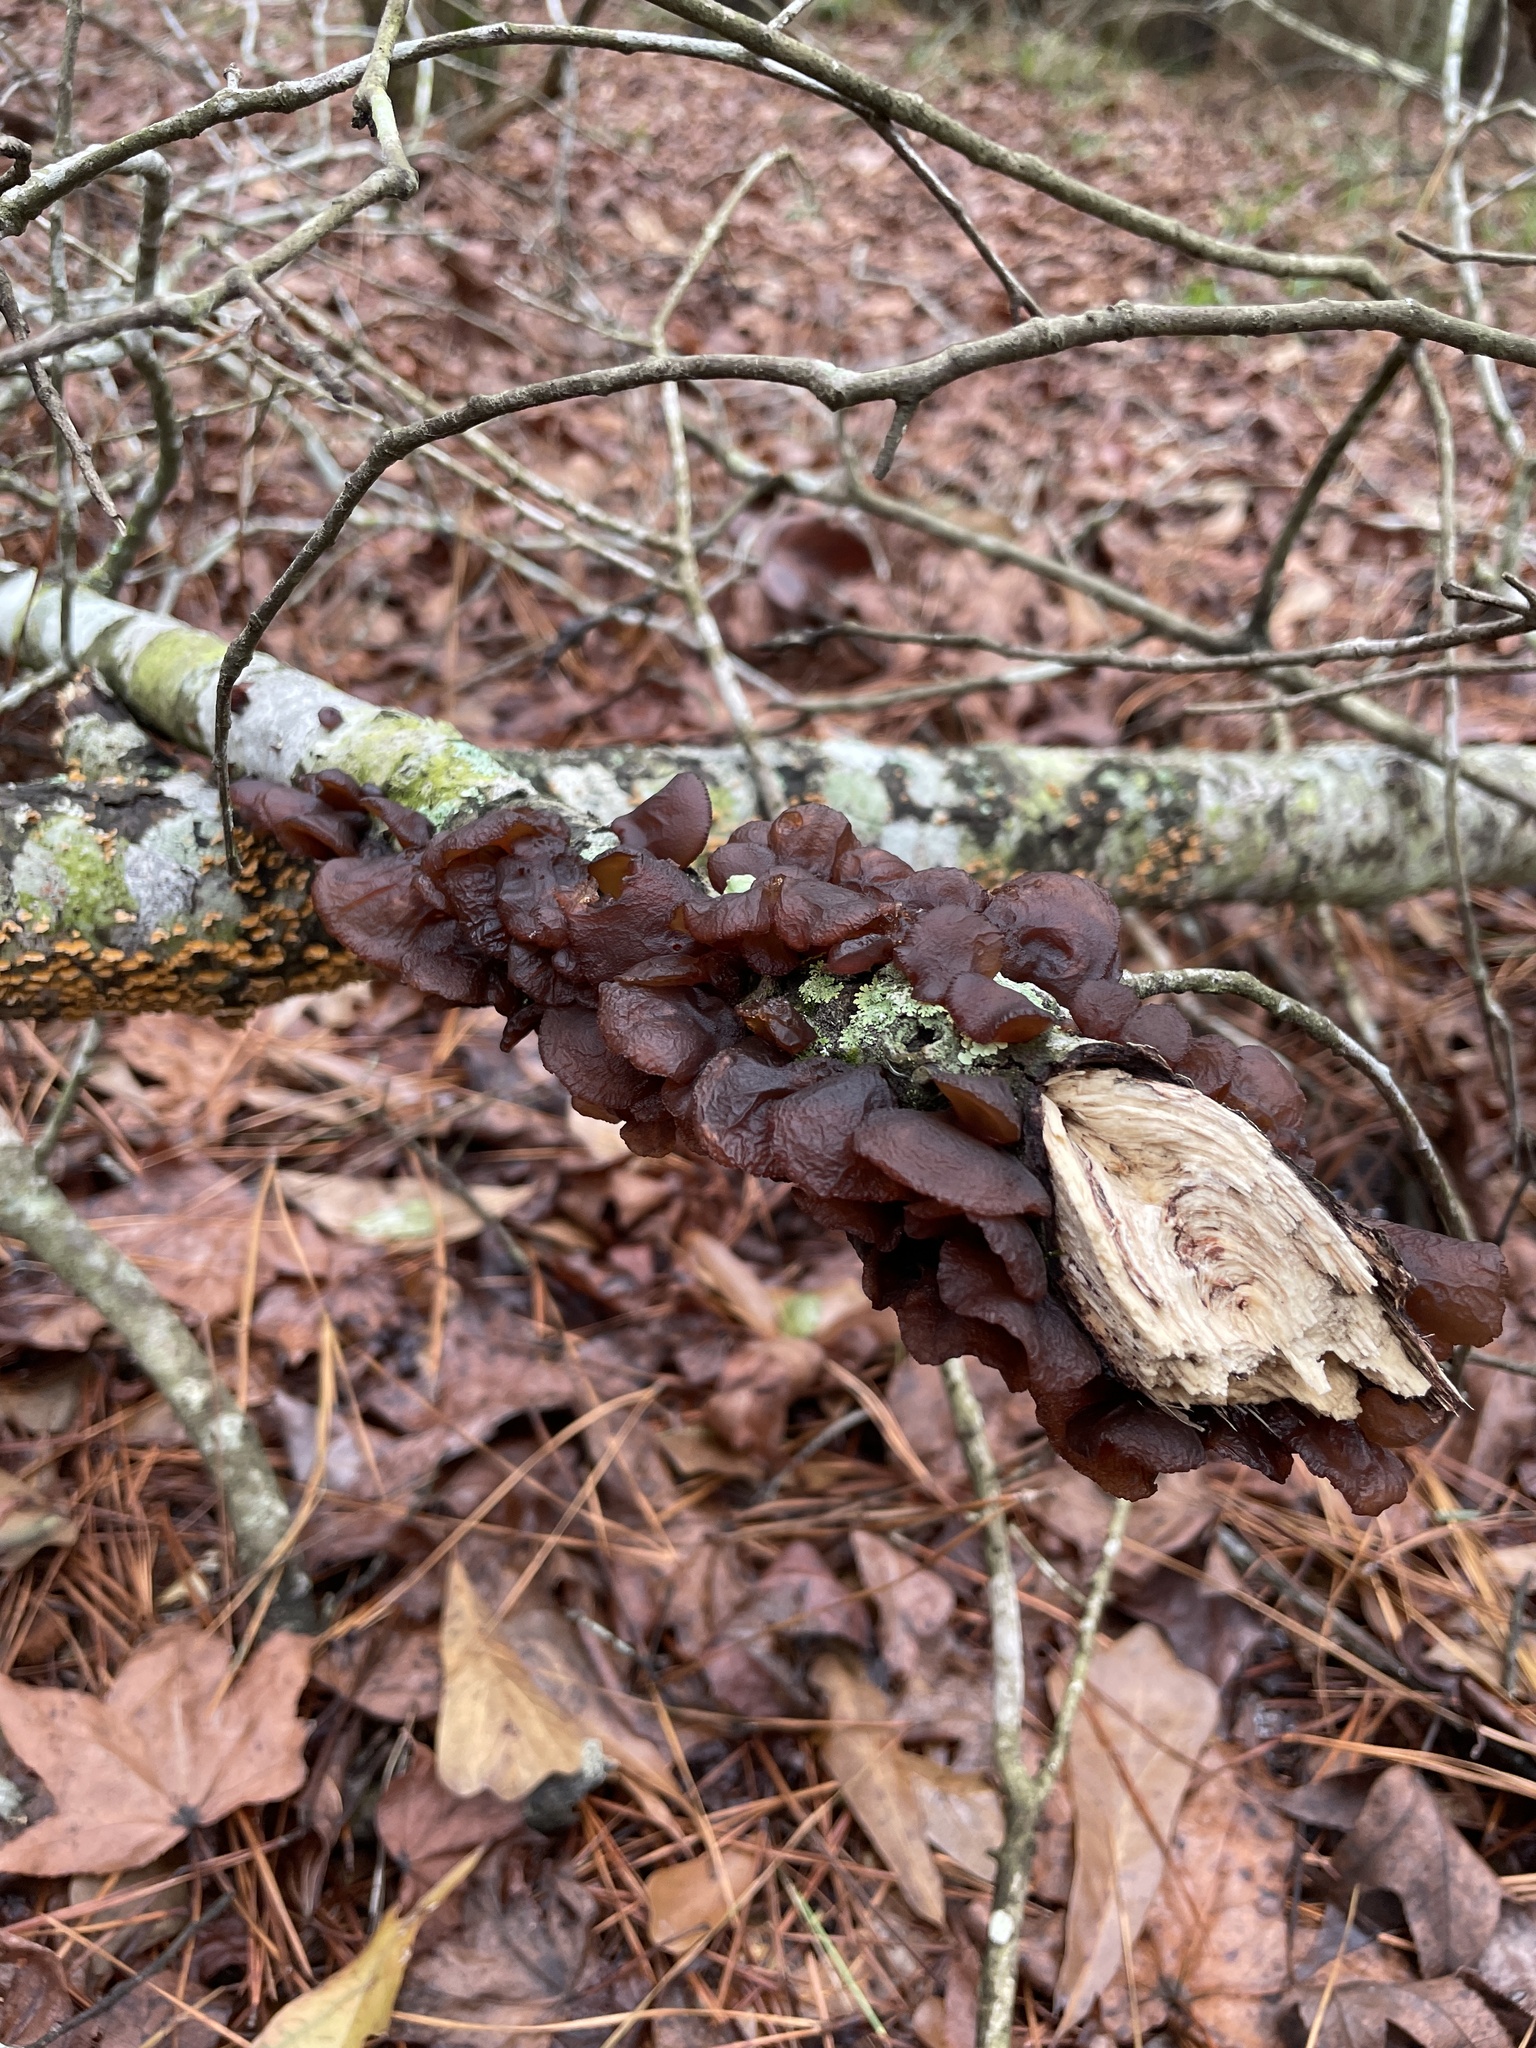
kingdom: Fungi
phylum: Basidiomycota
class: Agaricomycetes
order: Auriculariales
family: Auriculariaceae
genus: Exidia
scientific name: Exidia
